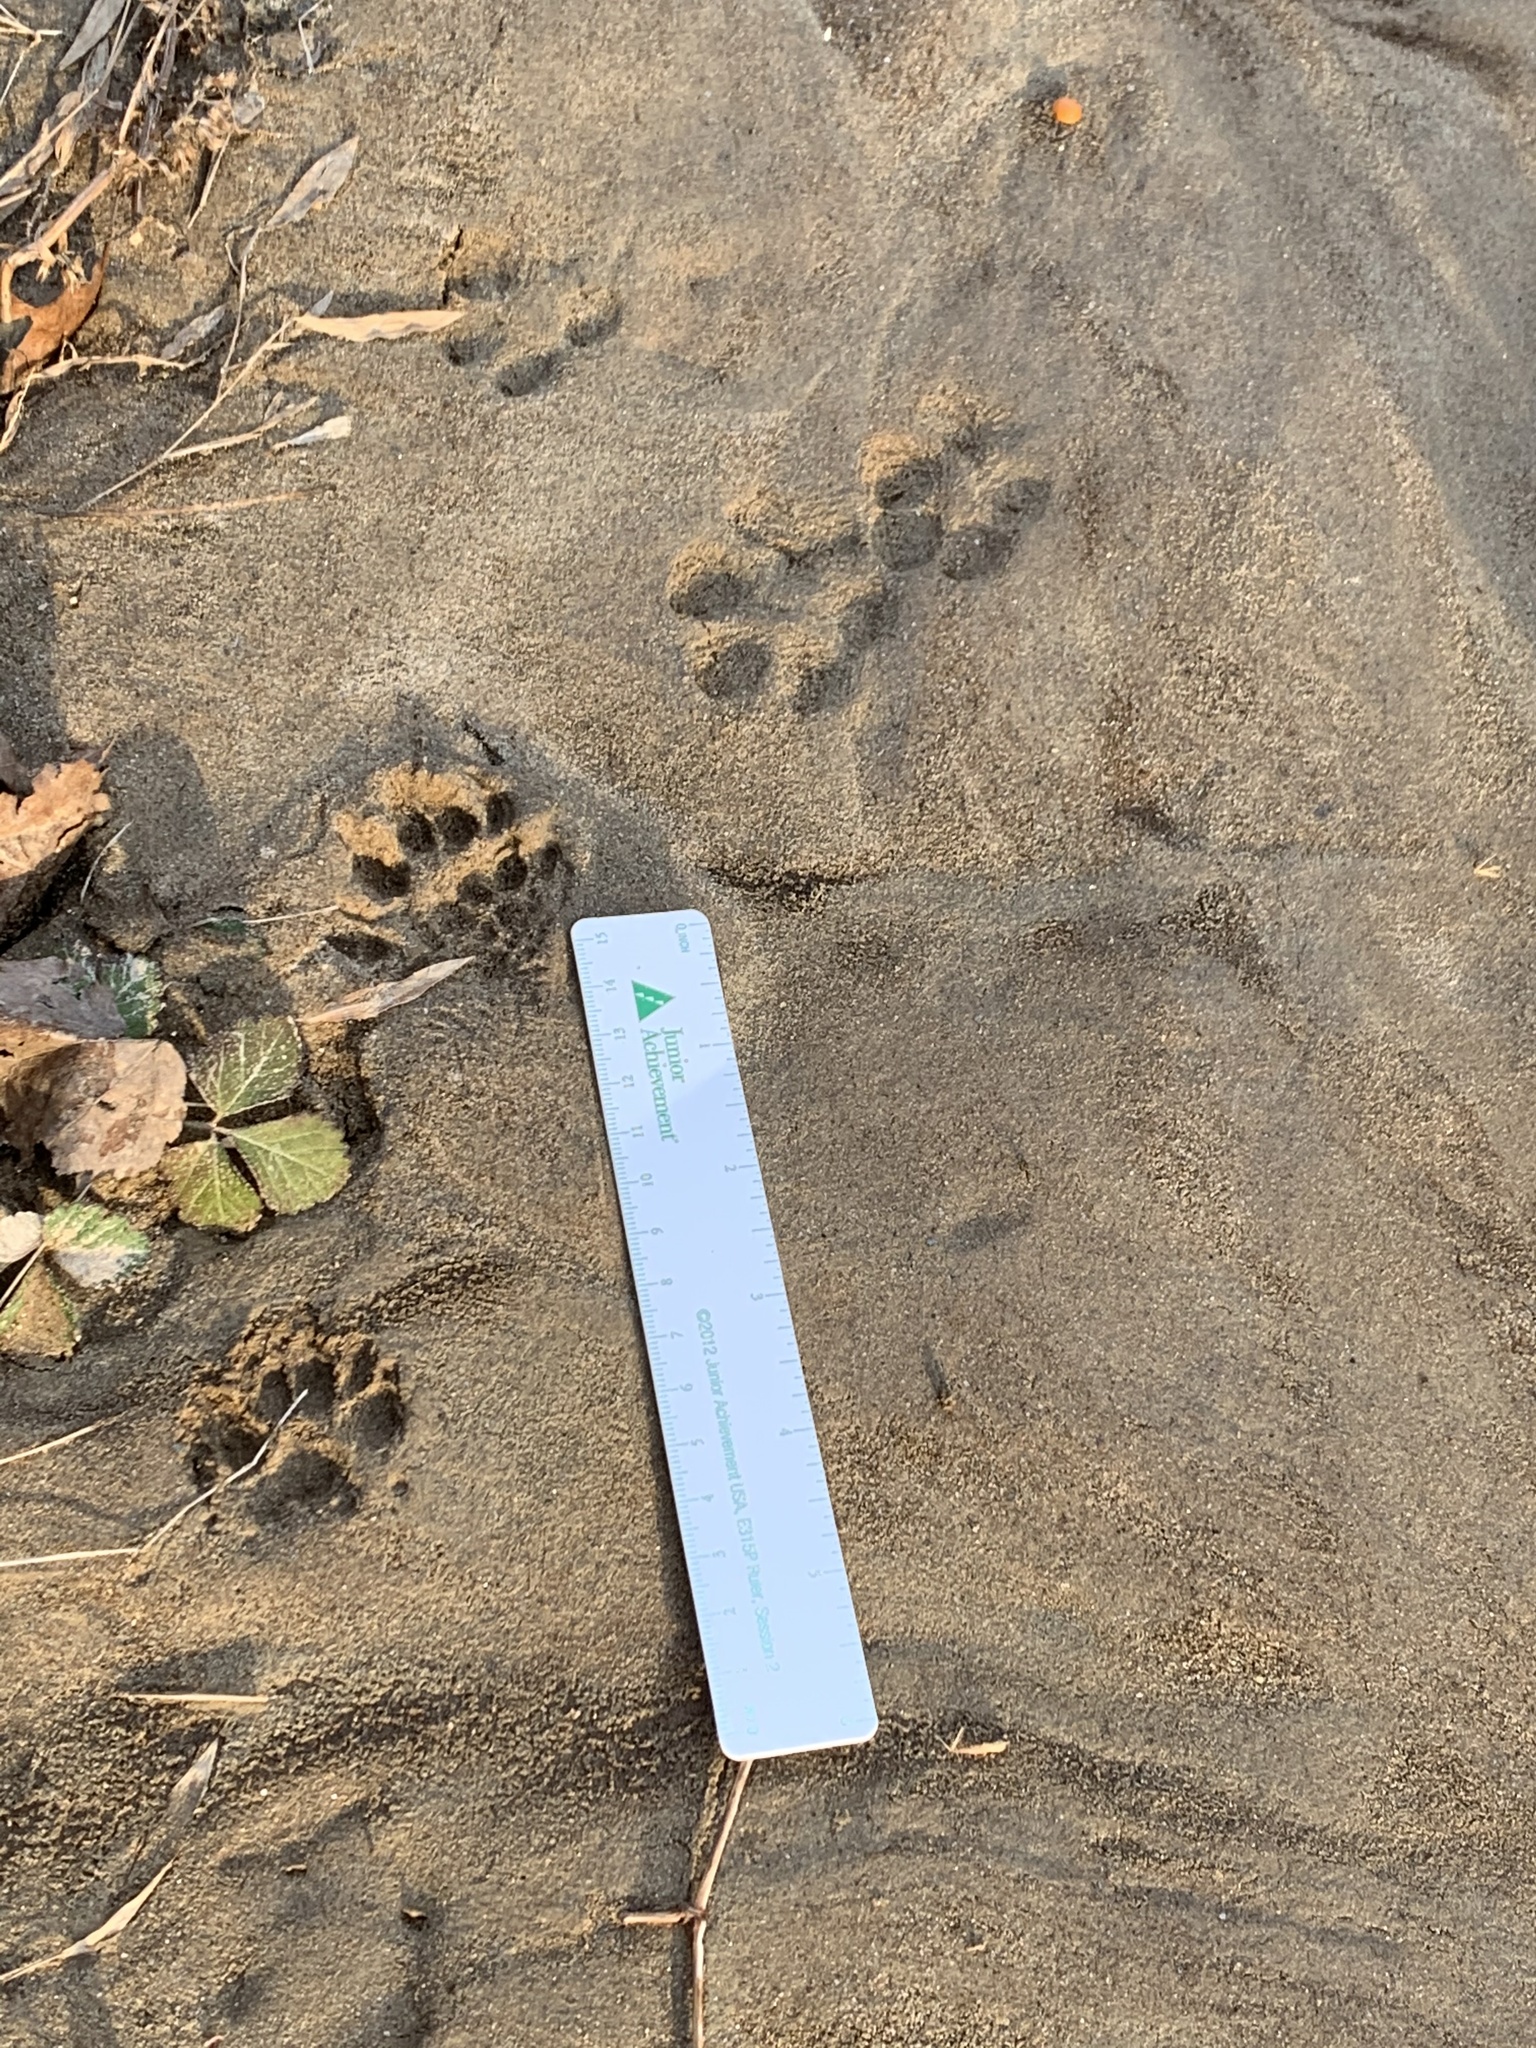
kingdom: Animalia
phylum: Chordata
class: Mammalia
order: Carnivora
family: Canidae
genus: Vulpes
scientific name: Vulpes vulpes
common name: Red fox
